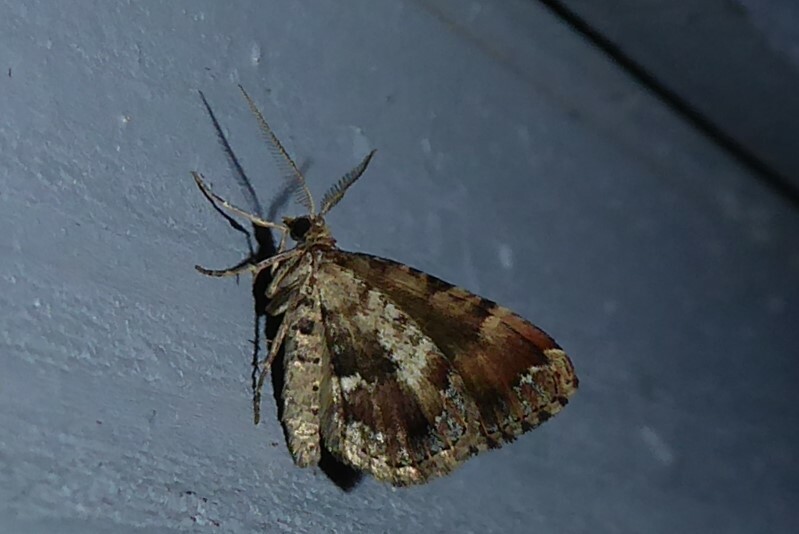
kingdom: Animalia
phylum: Arthropoda
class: Insecta
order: Lepidoptera
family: Geometridae
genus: Asaphodes
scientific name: Asaphodes aegrota
